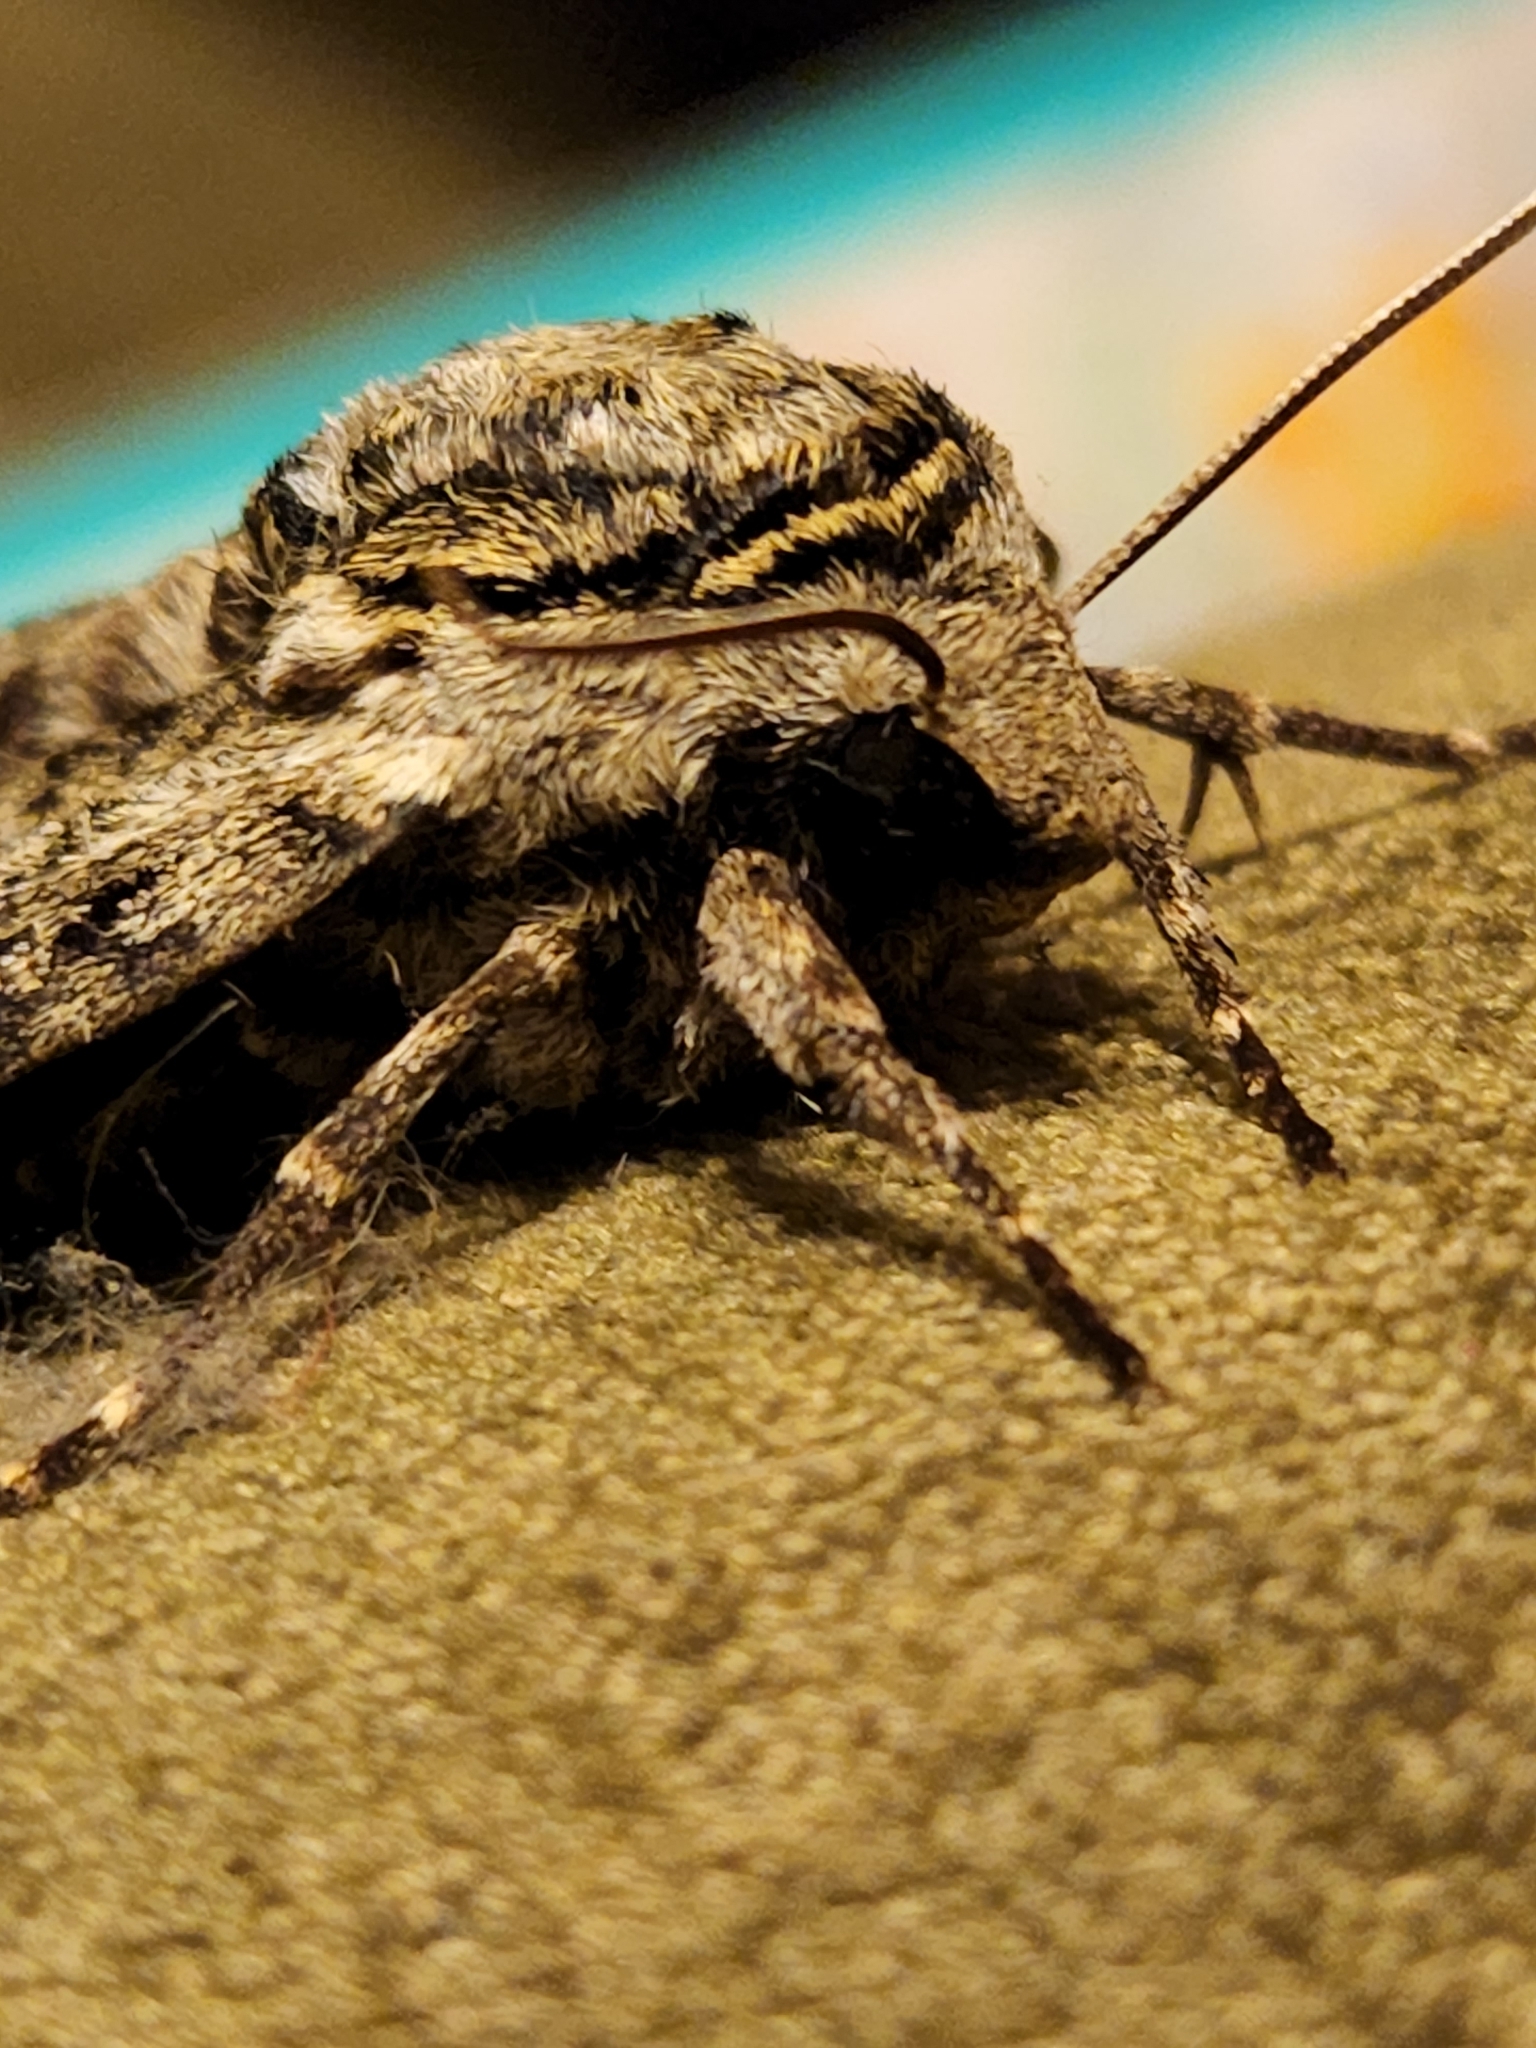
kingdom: Animalia
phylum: Arthropoda
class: Insecta
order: Lepidoptera
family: Sphingidae
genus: Ceratomia
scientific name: Ceratomia undulosa
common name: Waved sphinx
